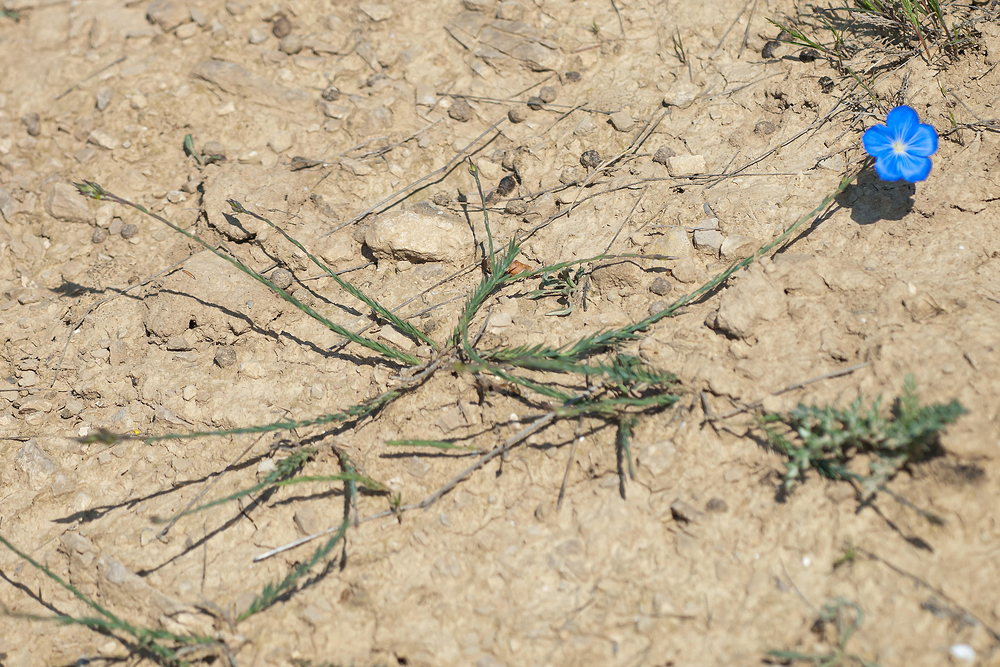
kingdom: Plantae
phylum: Tracheophyta
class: Magnoliopsida
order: Malpighiales
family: Linaceae
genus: Linum
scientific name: Linum narbonense
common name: Flax
